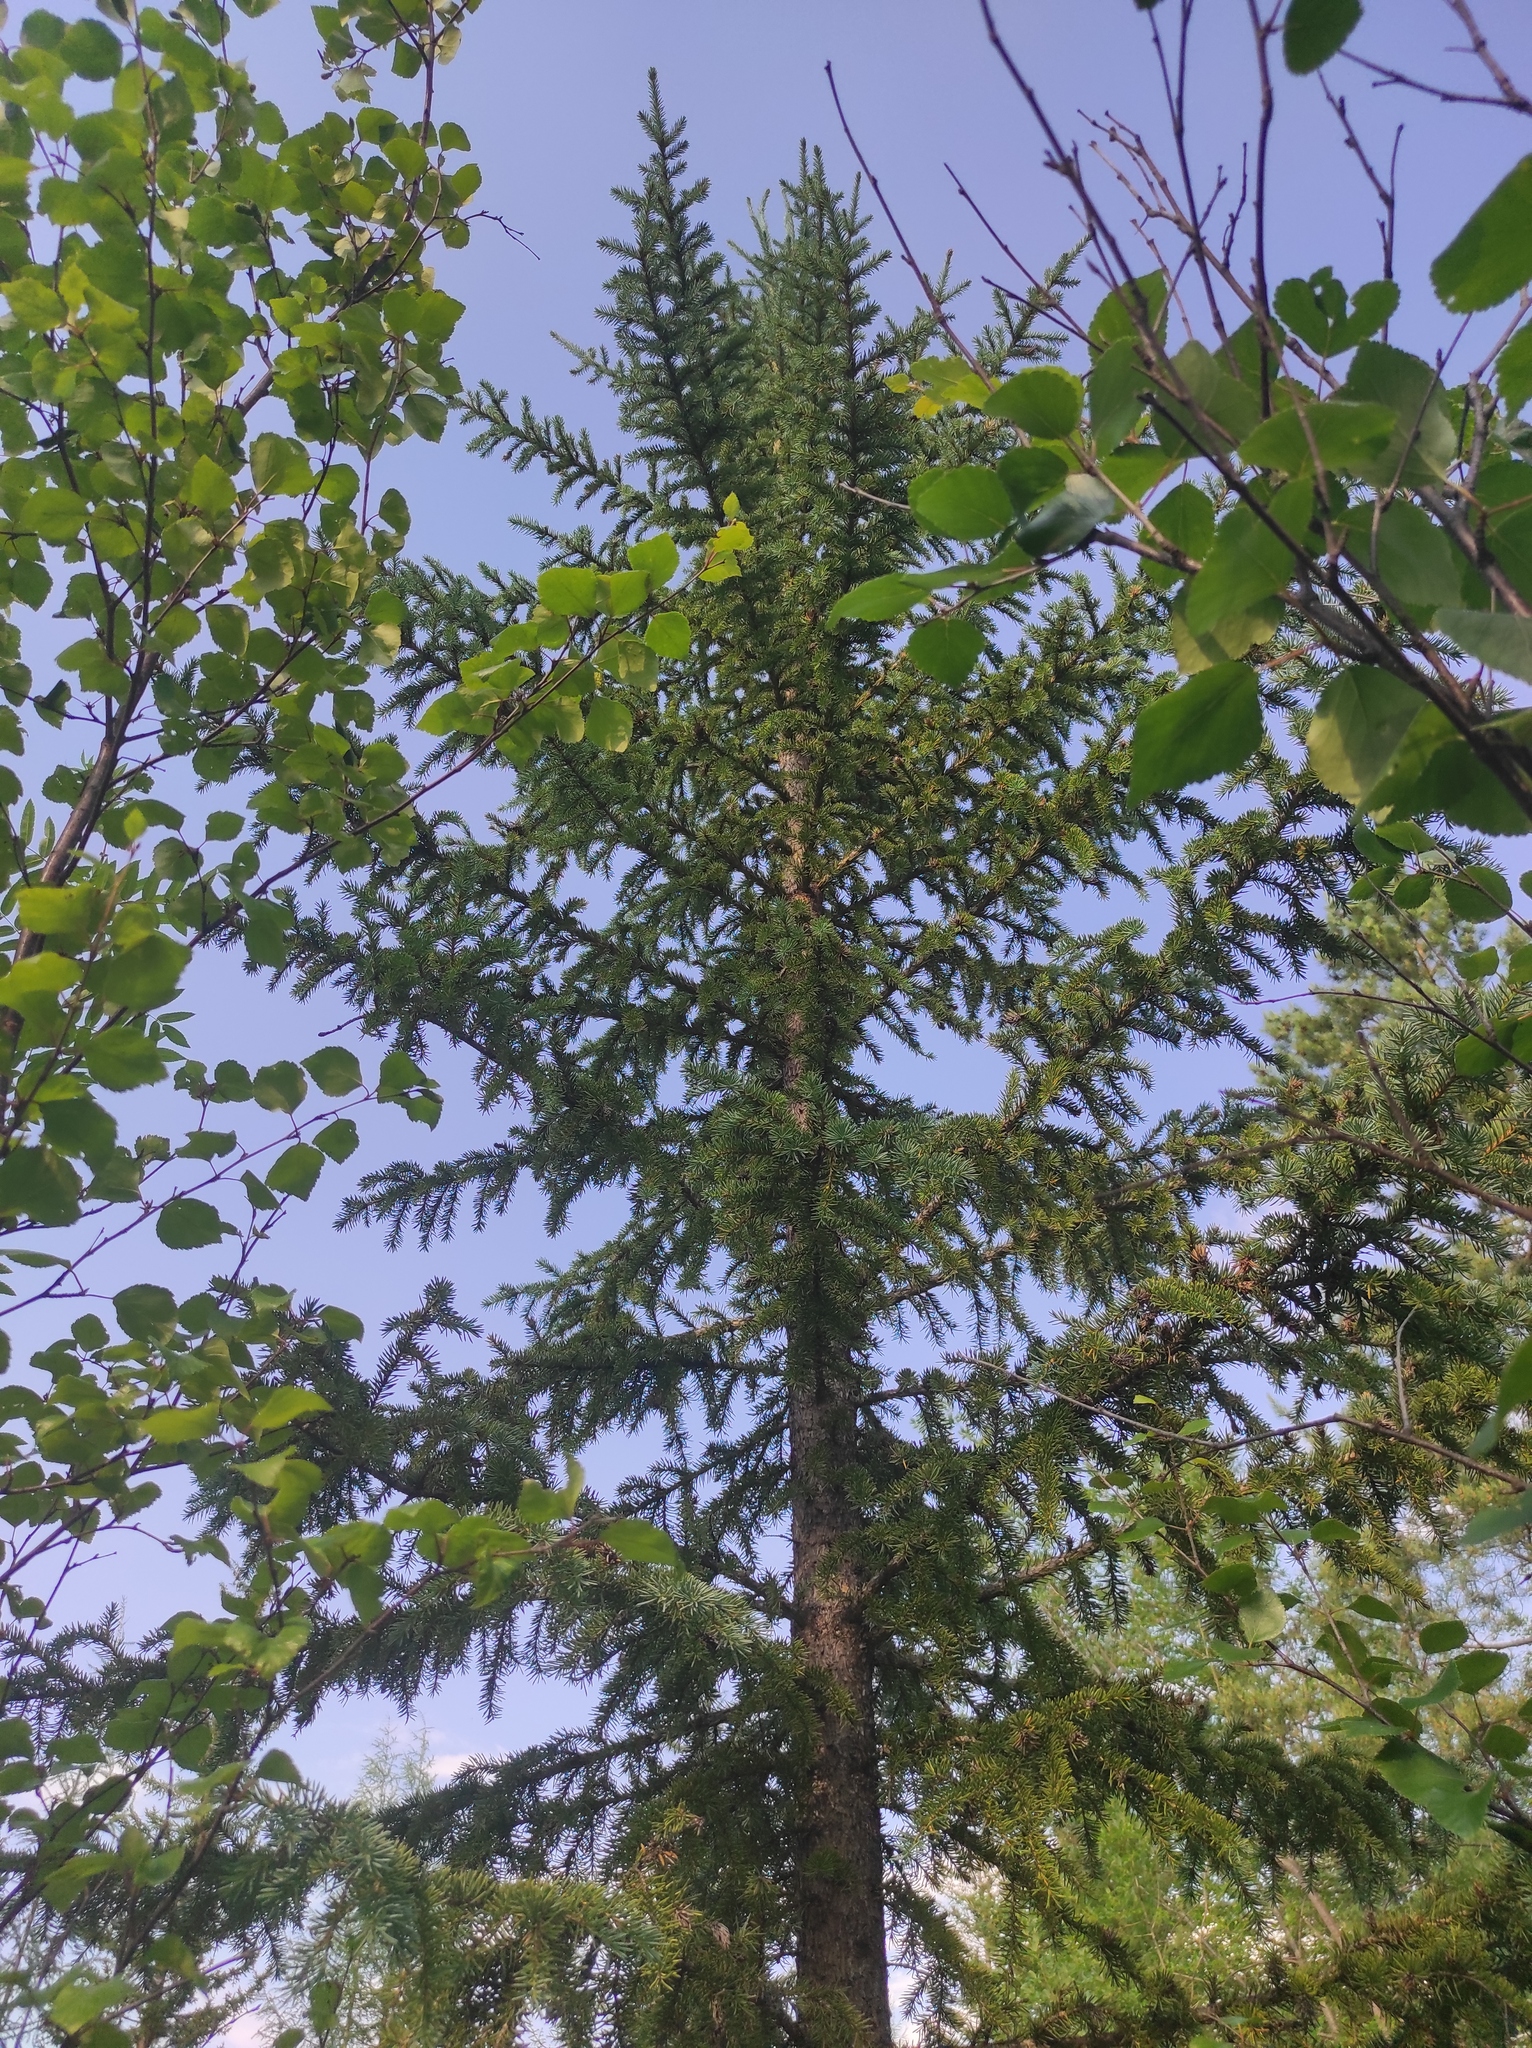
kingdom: Plantae
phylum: Tracheophyta
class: Magnoliopsida
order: Fagales
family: Betulaceae
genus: Alnus
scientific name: Alnus alnobetula
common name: Green alder
